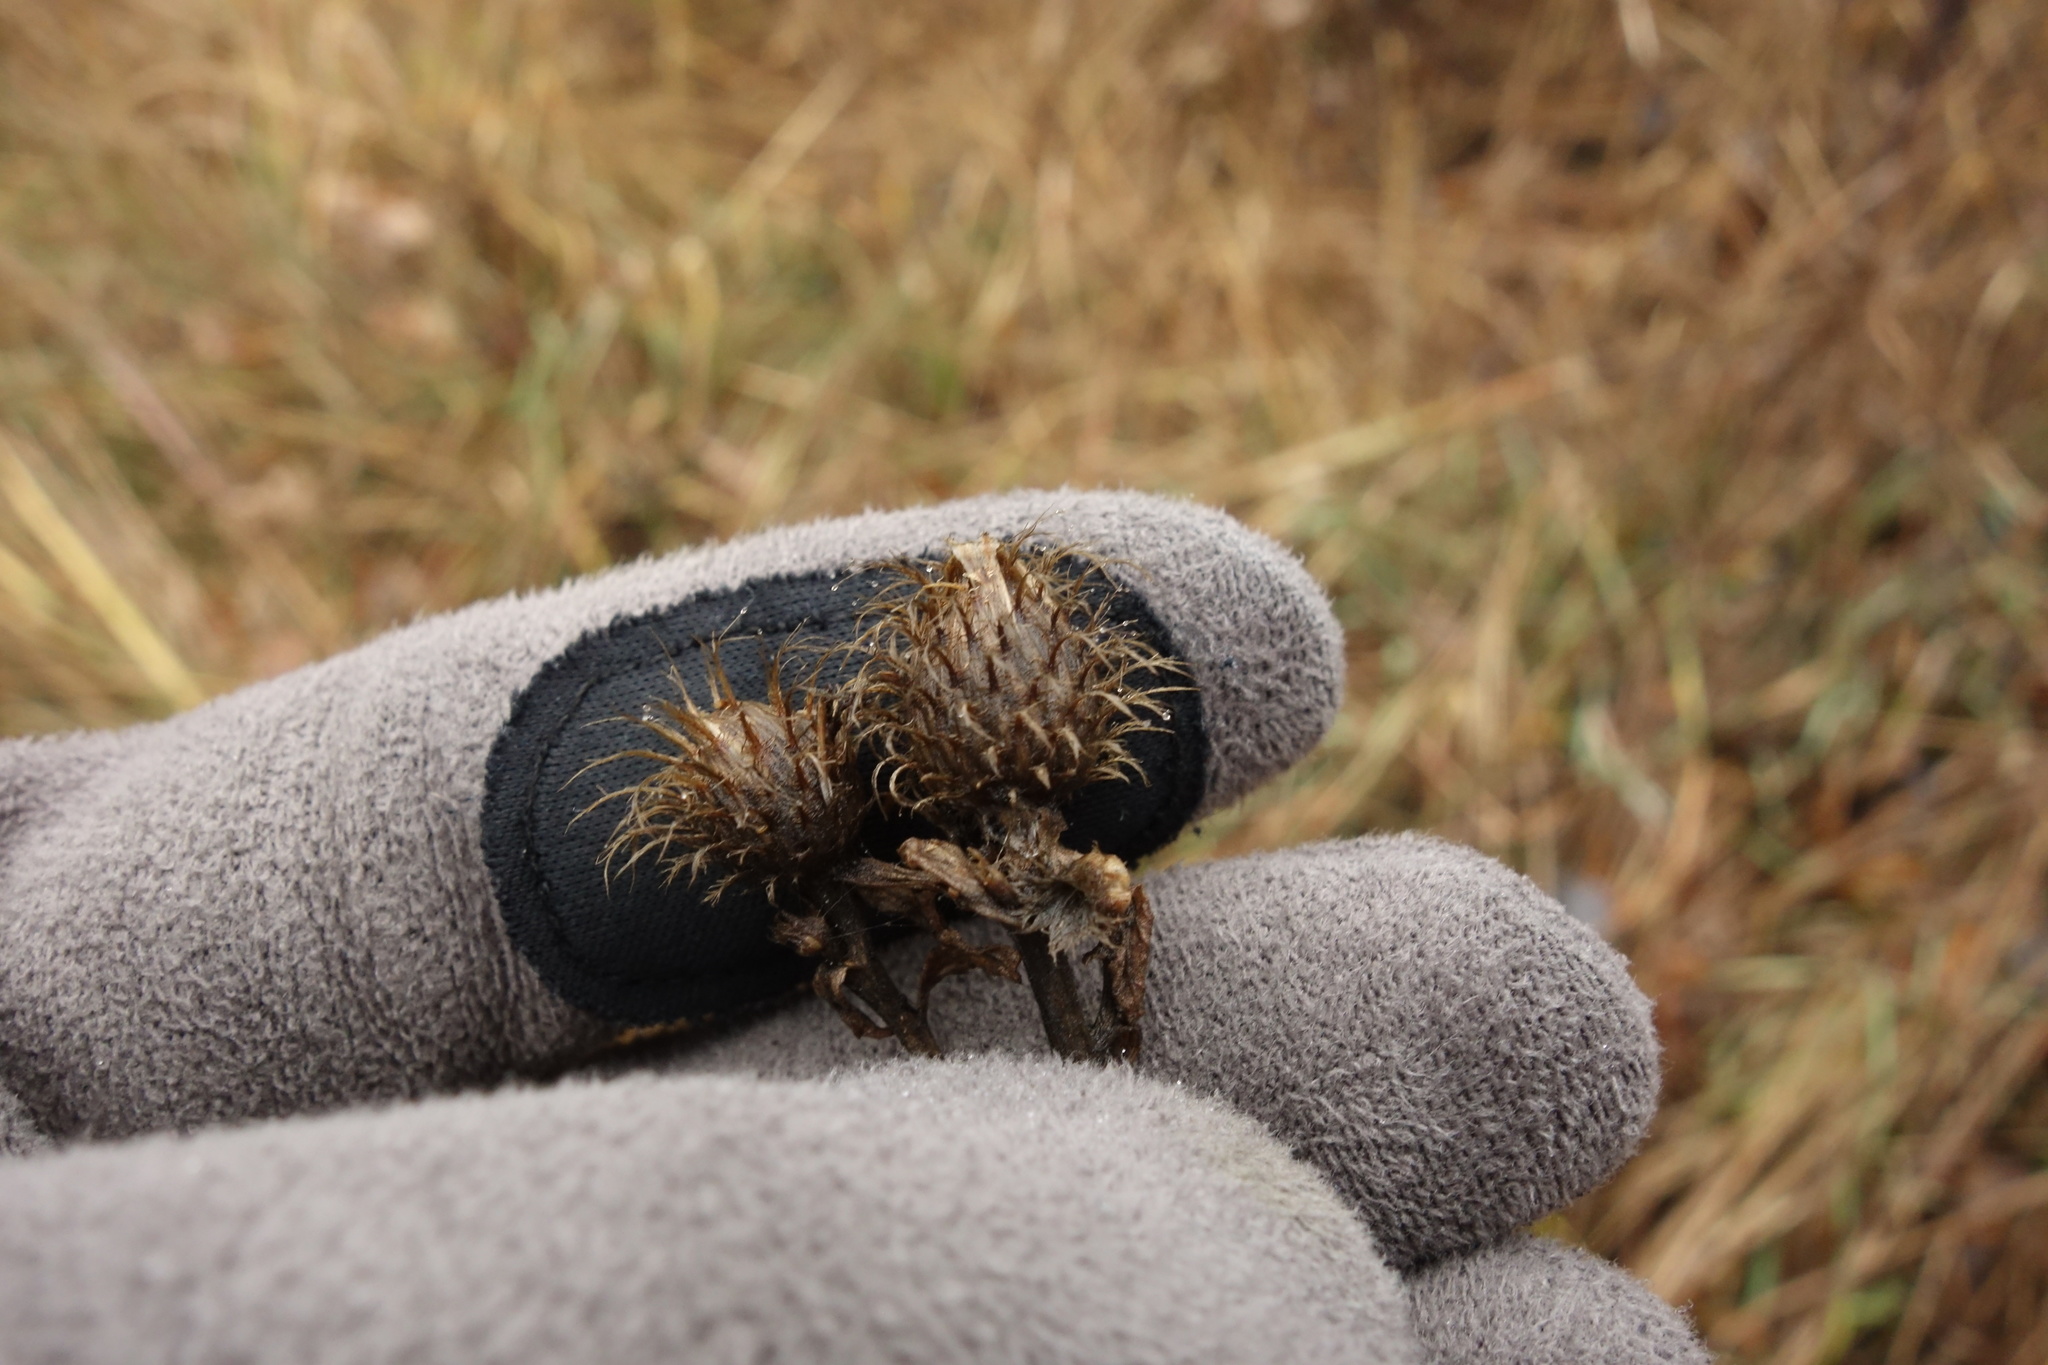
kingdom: Plantae
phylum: Tracheophyta
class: Magnoliopsida
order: Asterales
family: Asteraceae
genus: Centaurea
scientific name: Centaurea pseudophrygia
